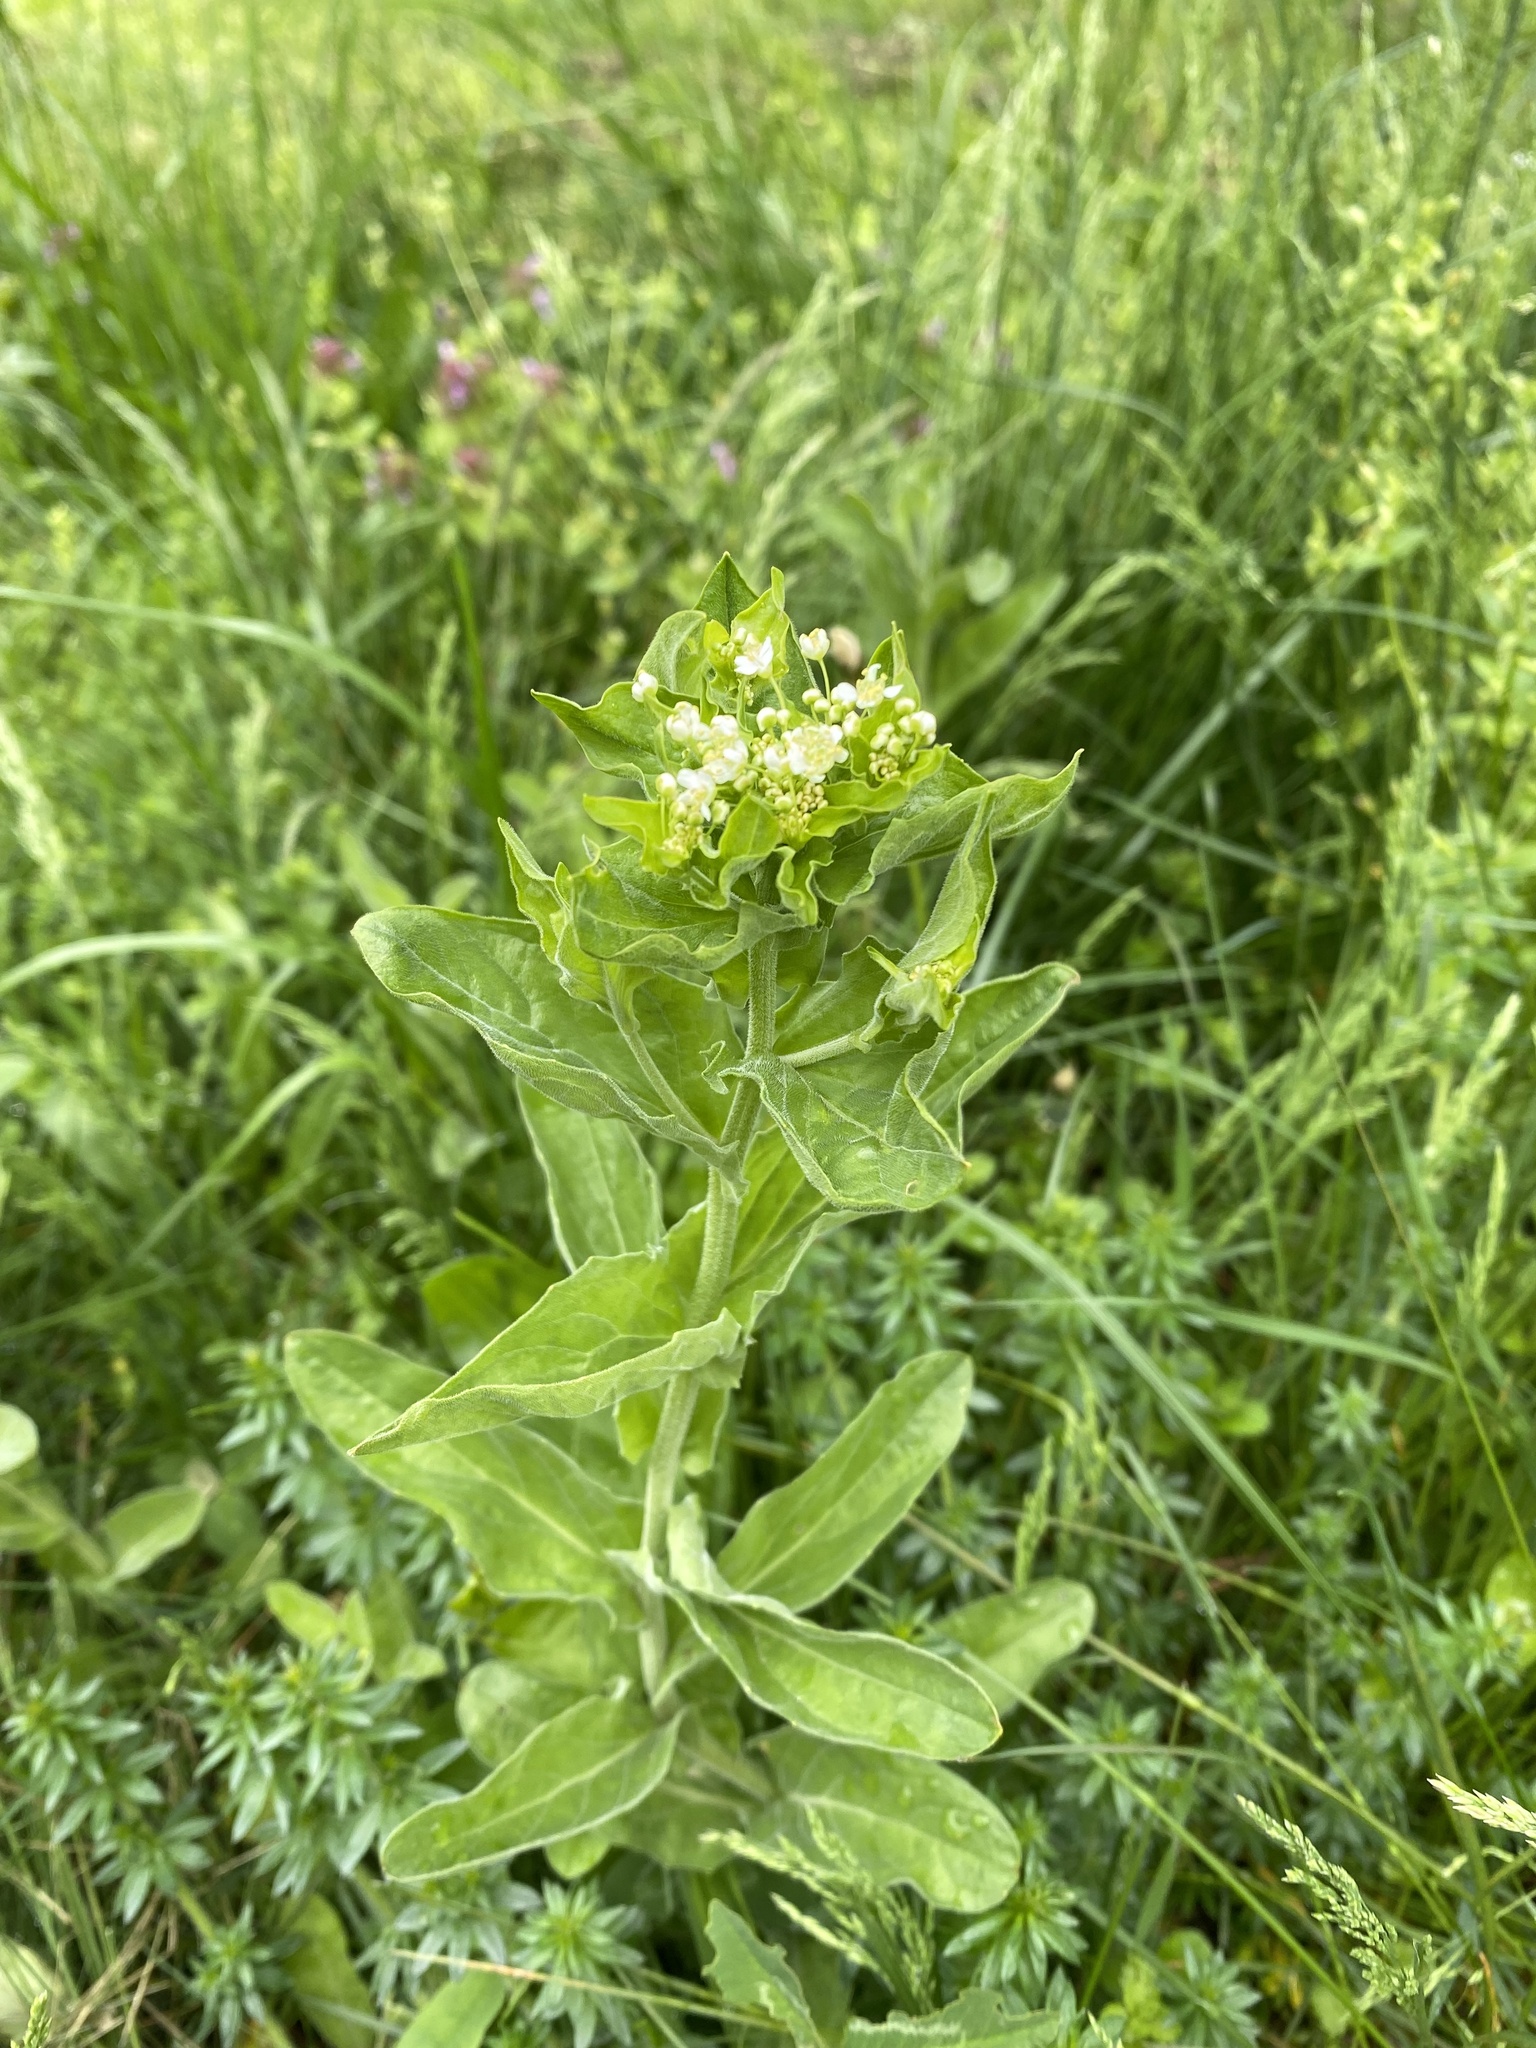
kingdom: Plantae
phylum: Tracheophyta
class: Magnoliopsida
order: Brassicales
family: Brassicaceae
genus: Lepidium
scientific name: Lepidium draba
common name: Hoary cress
